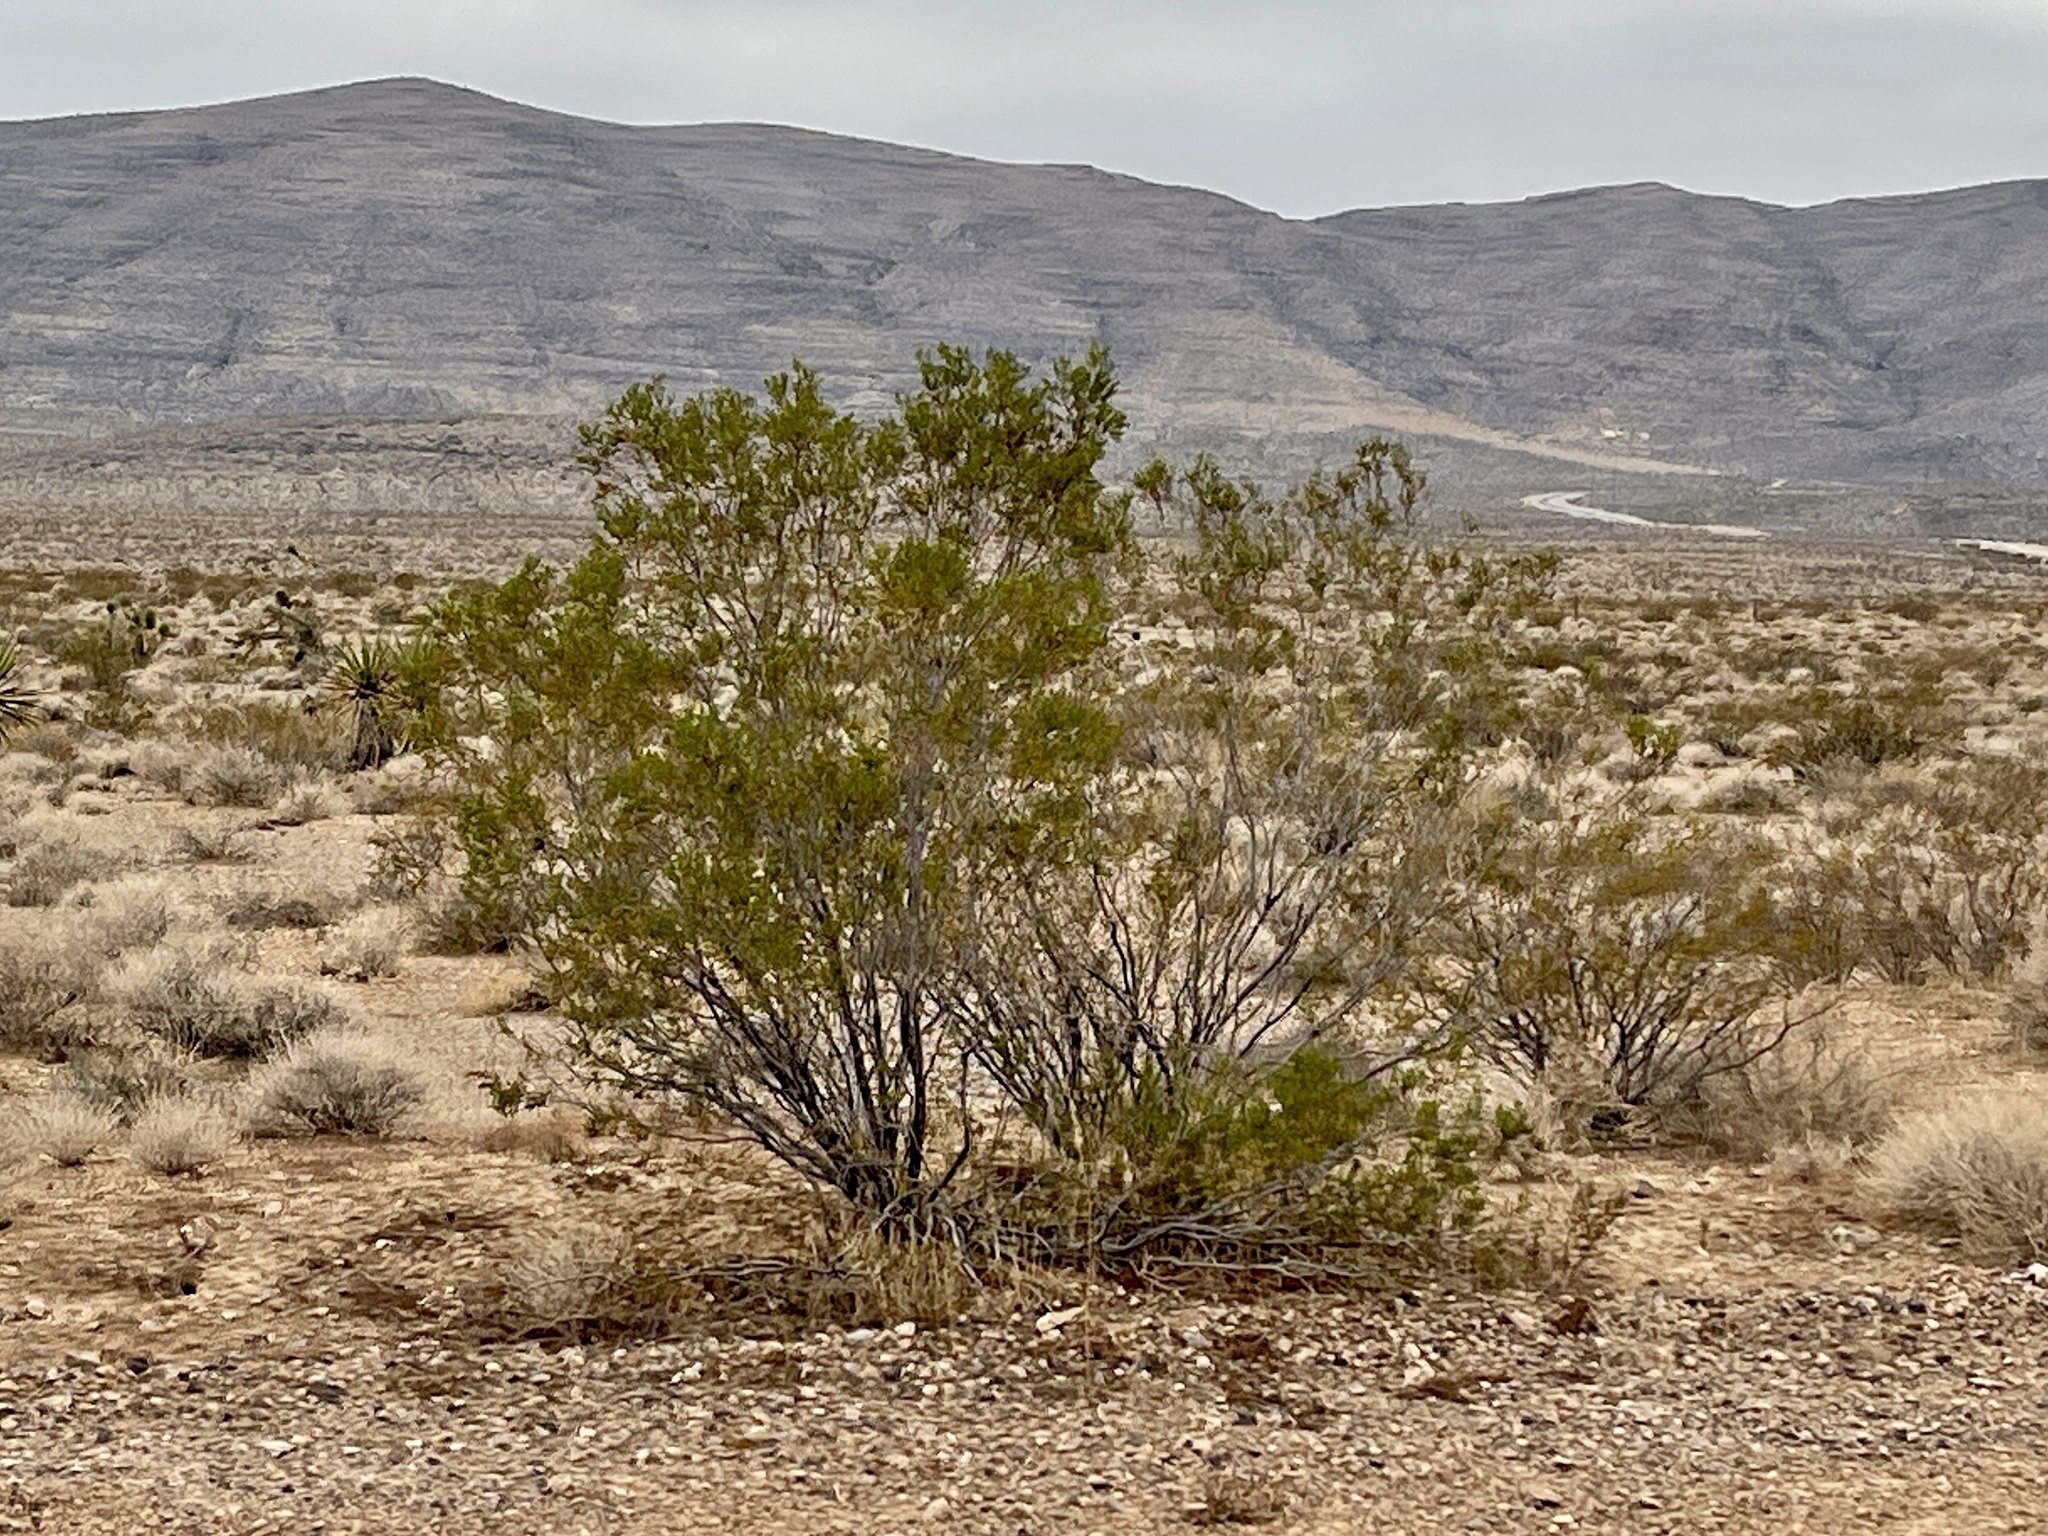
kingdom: Plantae
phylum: Tracheophyta
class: Magnoliopsida
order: Zygophyllales
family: Zygophyllaceae
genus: Larrea
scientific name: Larrea tridentata
